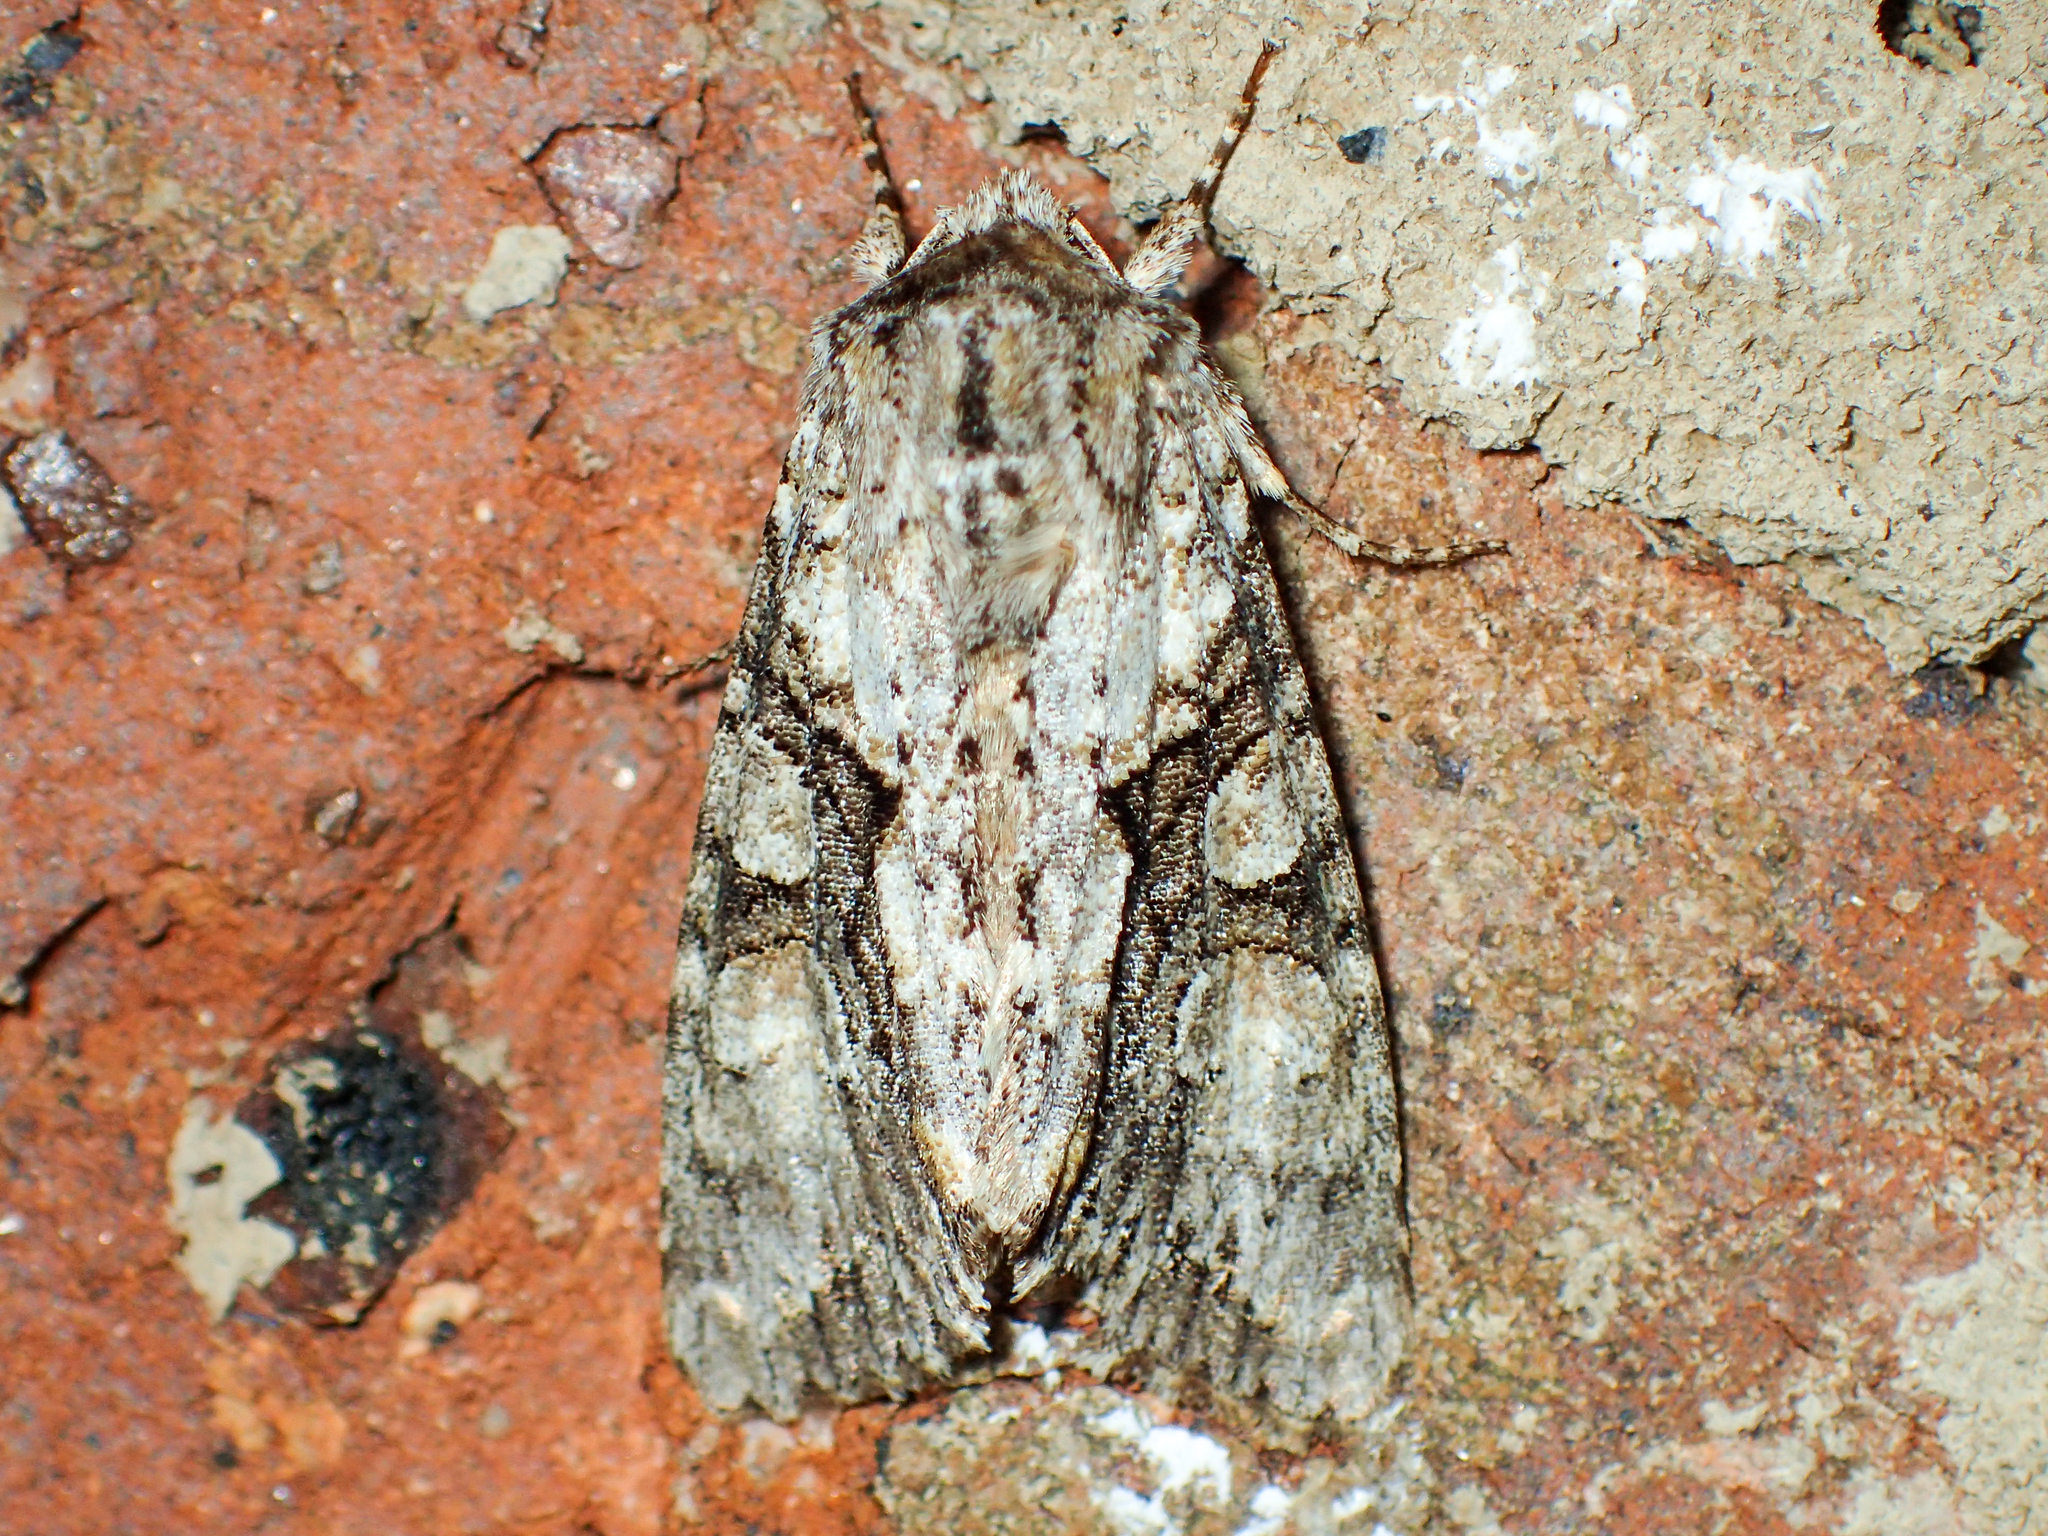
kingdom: Animalia
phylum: Arthropoda
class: Insecta
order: Lepidoptera
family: Noctuidae
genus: Achatia
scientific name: Achatia distincta
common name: Distinct quaker
